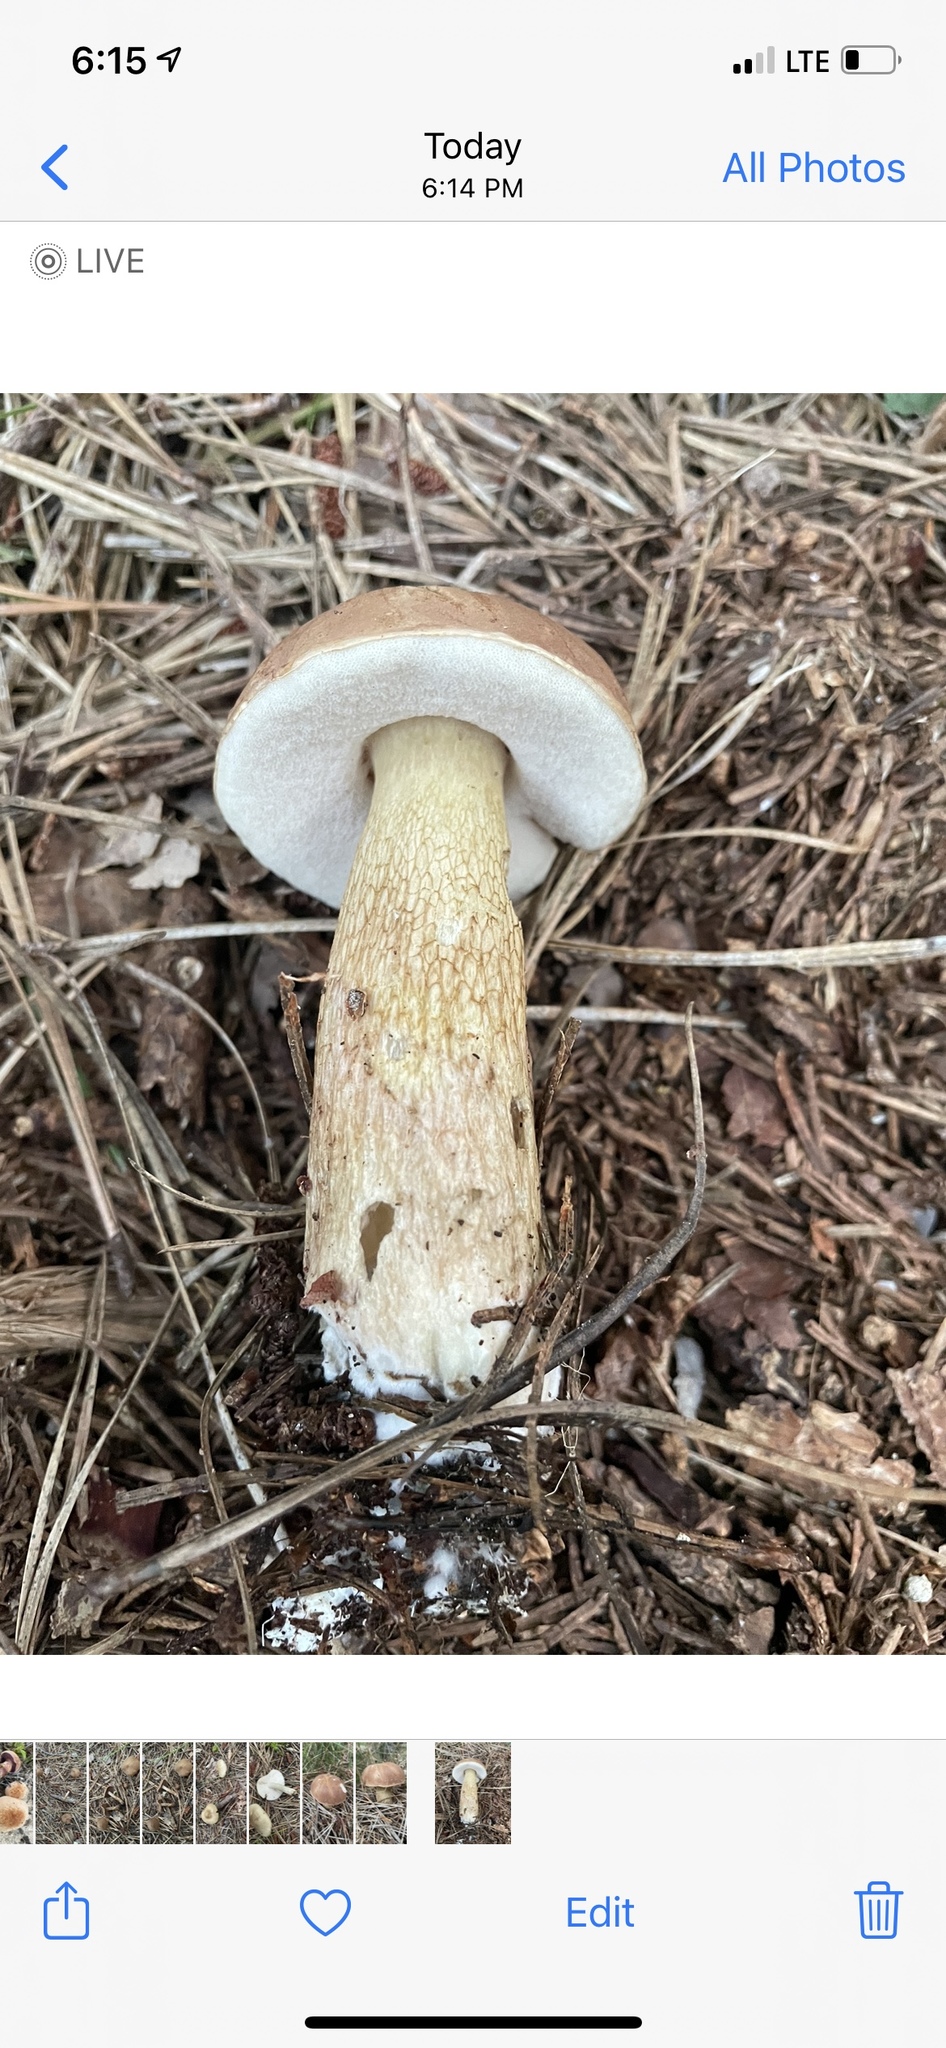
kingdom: Fungi
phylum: Basidiomycota
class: Agaricomycetes
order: Boletales
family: Boletaceae
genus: Tylopilus
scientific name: Tylopilus felleus
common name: Bitter bolete
